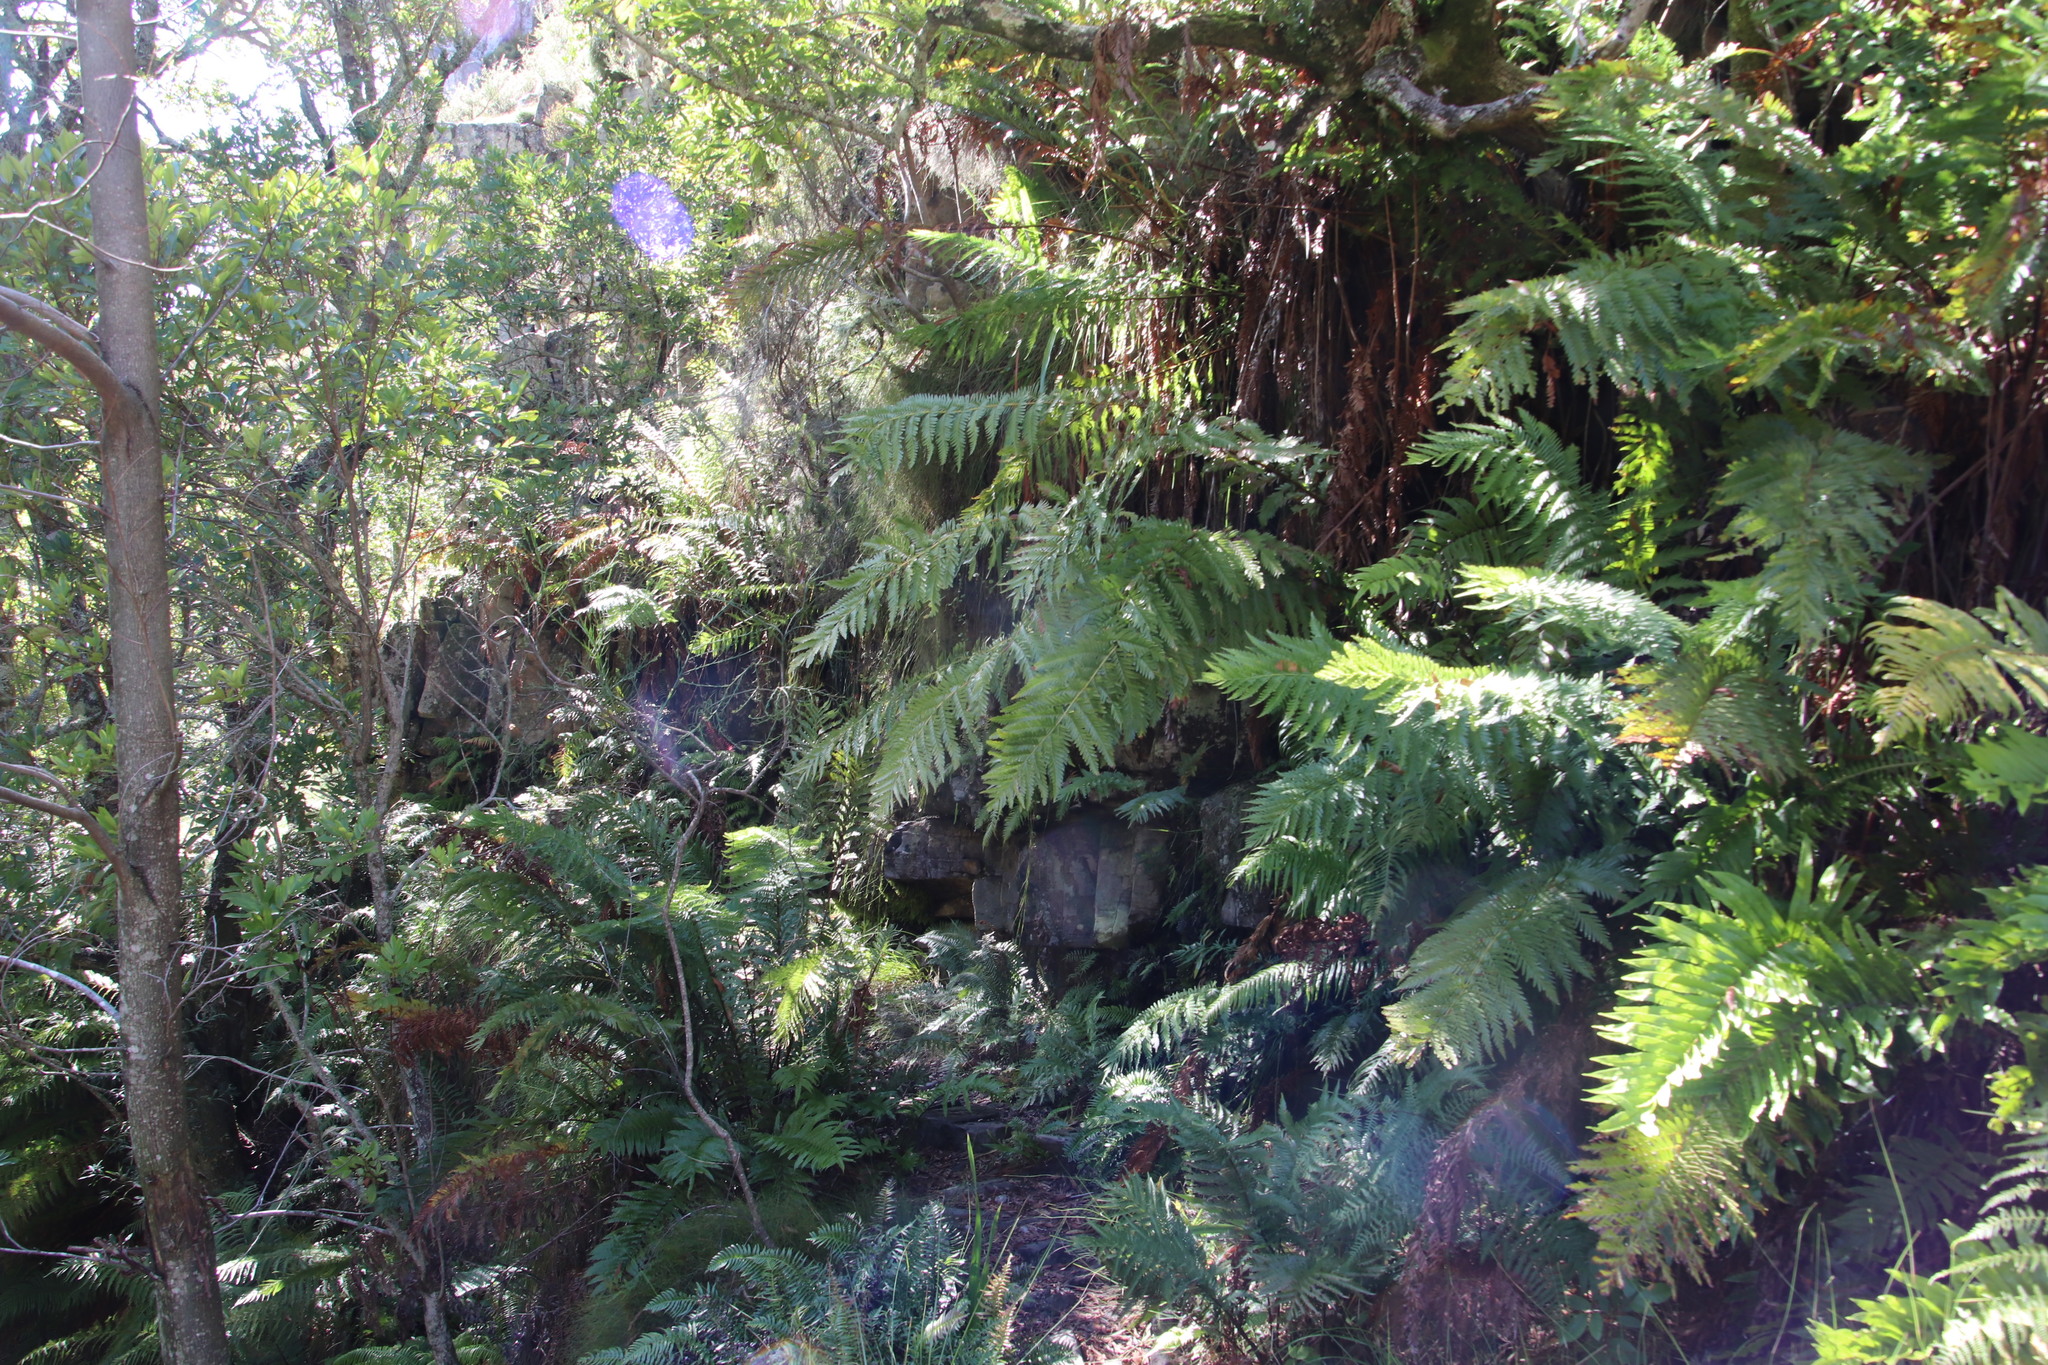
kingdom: Plantae
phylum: Tracheophyta
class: Polypodiopsida
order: Polypodiales
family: Blechnaceae
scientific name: Blechnaceae
